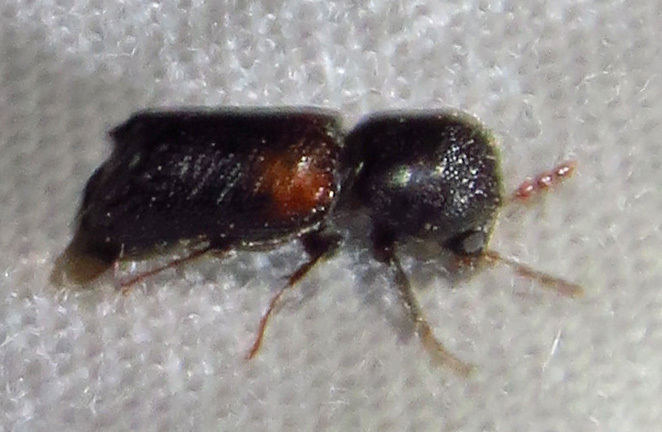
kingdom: Animalia
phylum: Arthropoda
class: Insecta
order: Coleoptera
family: Bostrichidae
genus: Xylobiops
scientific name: Xylobiops basilaris
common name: Red-shouldered bostrichid
